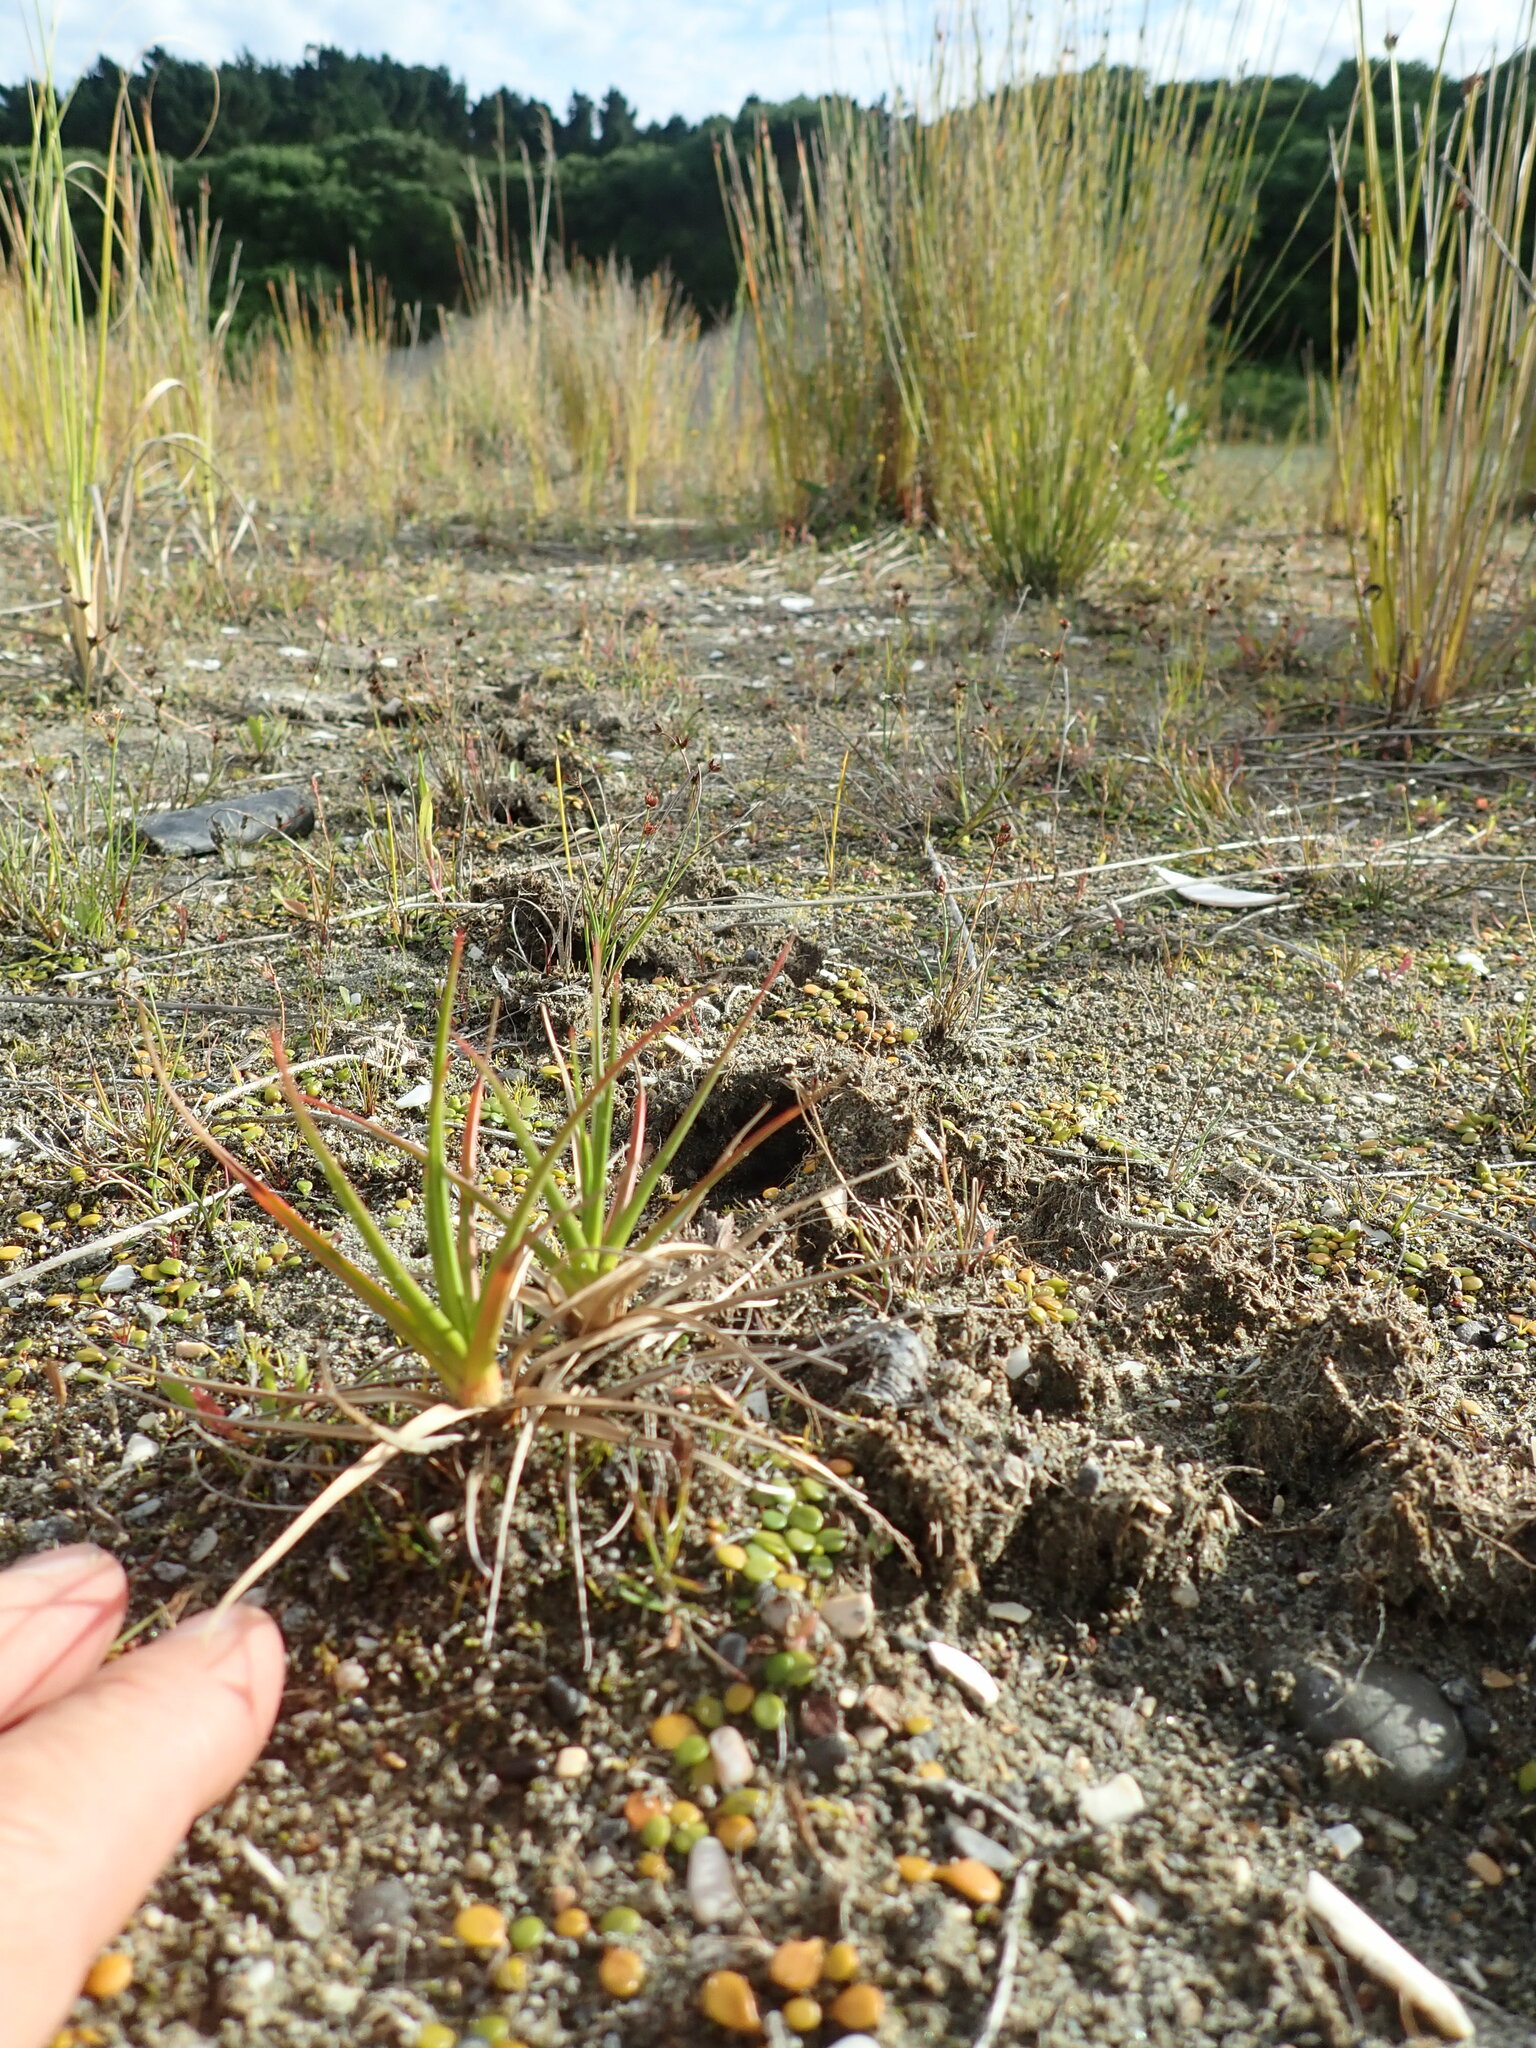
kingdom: Plantae
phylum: Tracheophyta
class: Liliopsida
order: Poales
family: Juncaceae
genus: Juncus
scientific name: Juncus caespiticius
